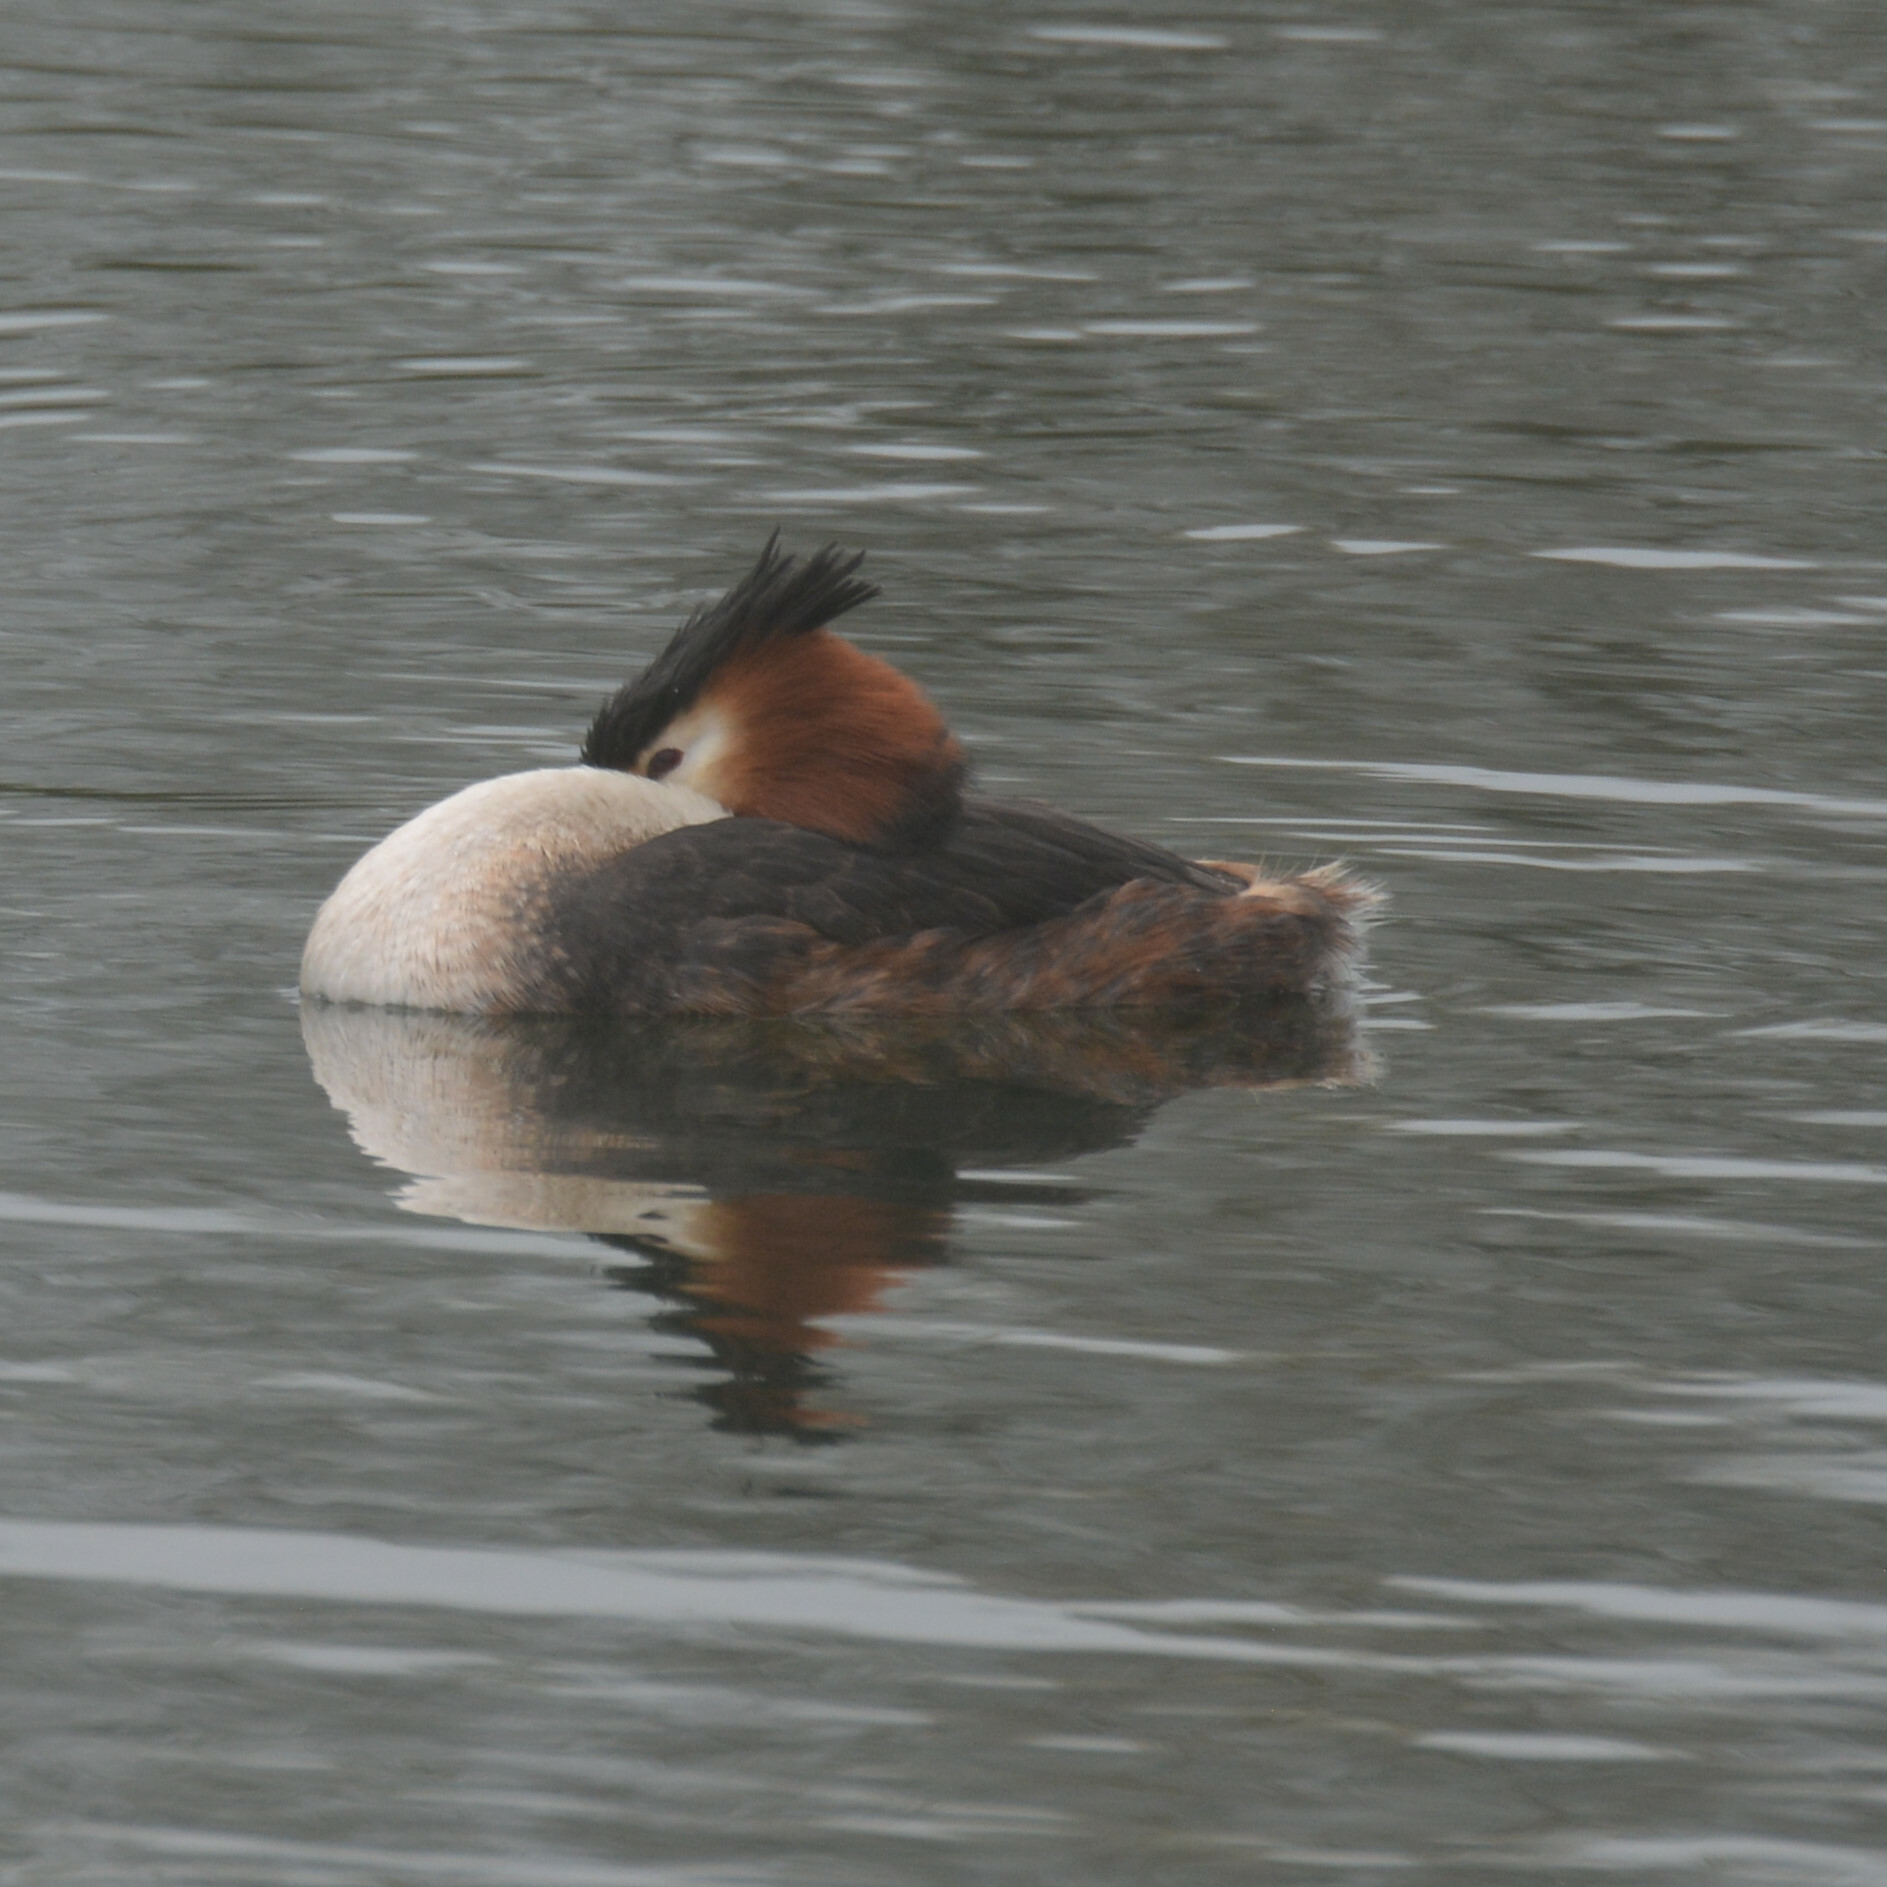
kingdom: Animalia
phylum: Chordata
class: Aves
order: Podicipediformes
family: Podicipedidae
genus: Podiceps
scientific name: Podiceps cristatus
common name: Great crested grebe
